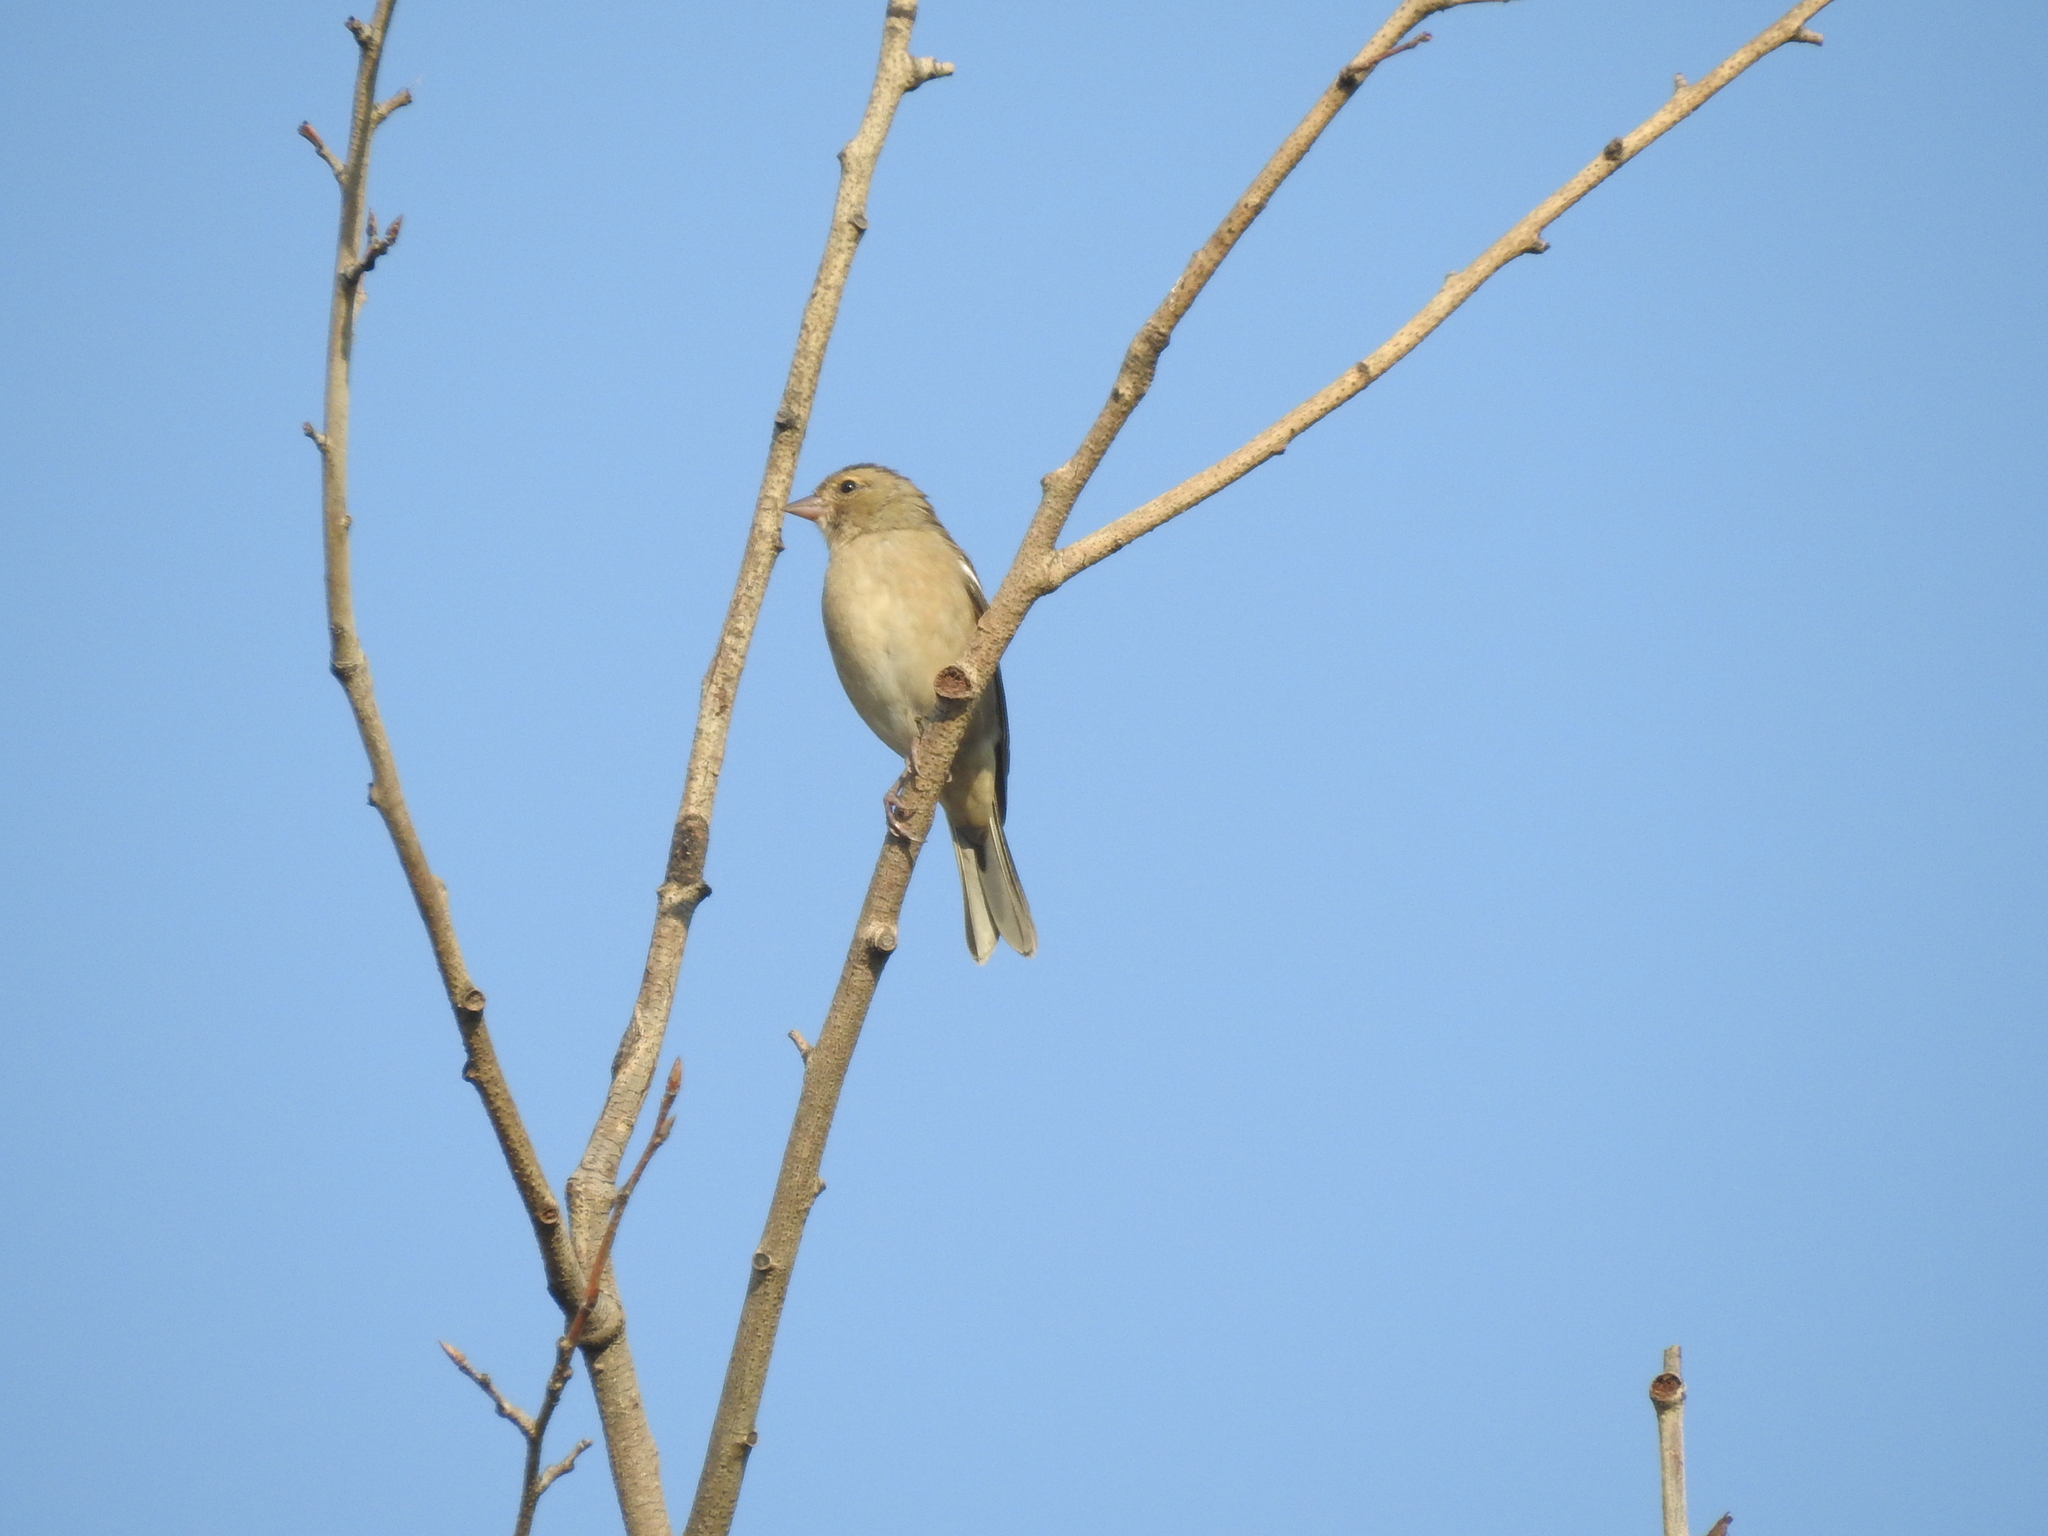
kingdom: Animalia
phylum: Chordata
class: Aves
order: Passeriformes
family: Fringillidae
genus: Fringilla
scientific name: Fringilla coelebs
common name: Common chaffinch
